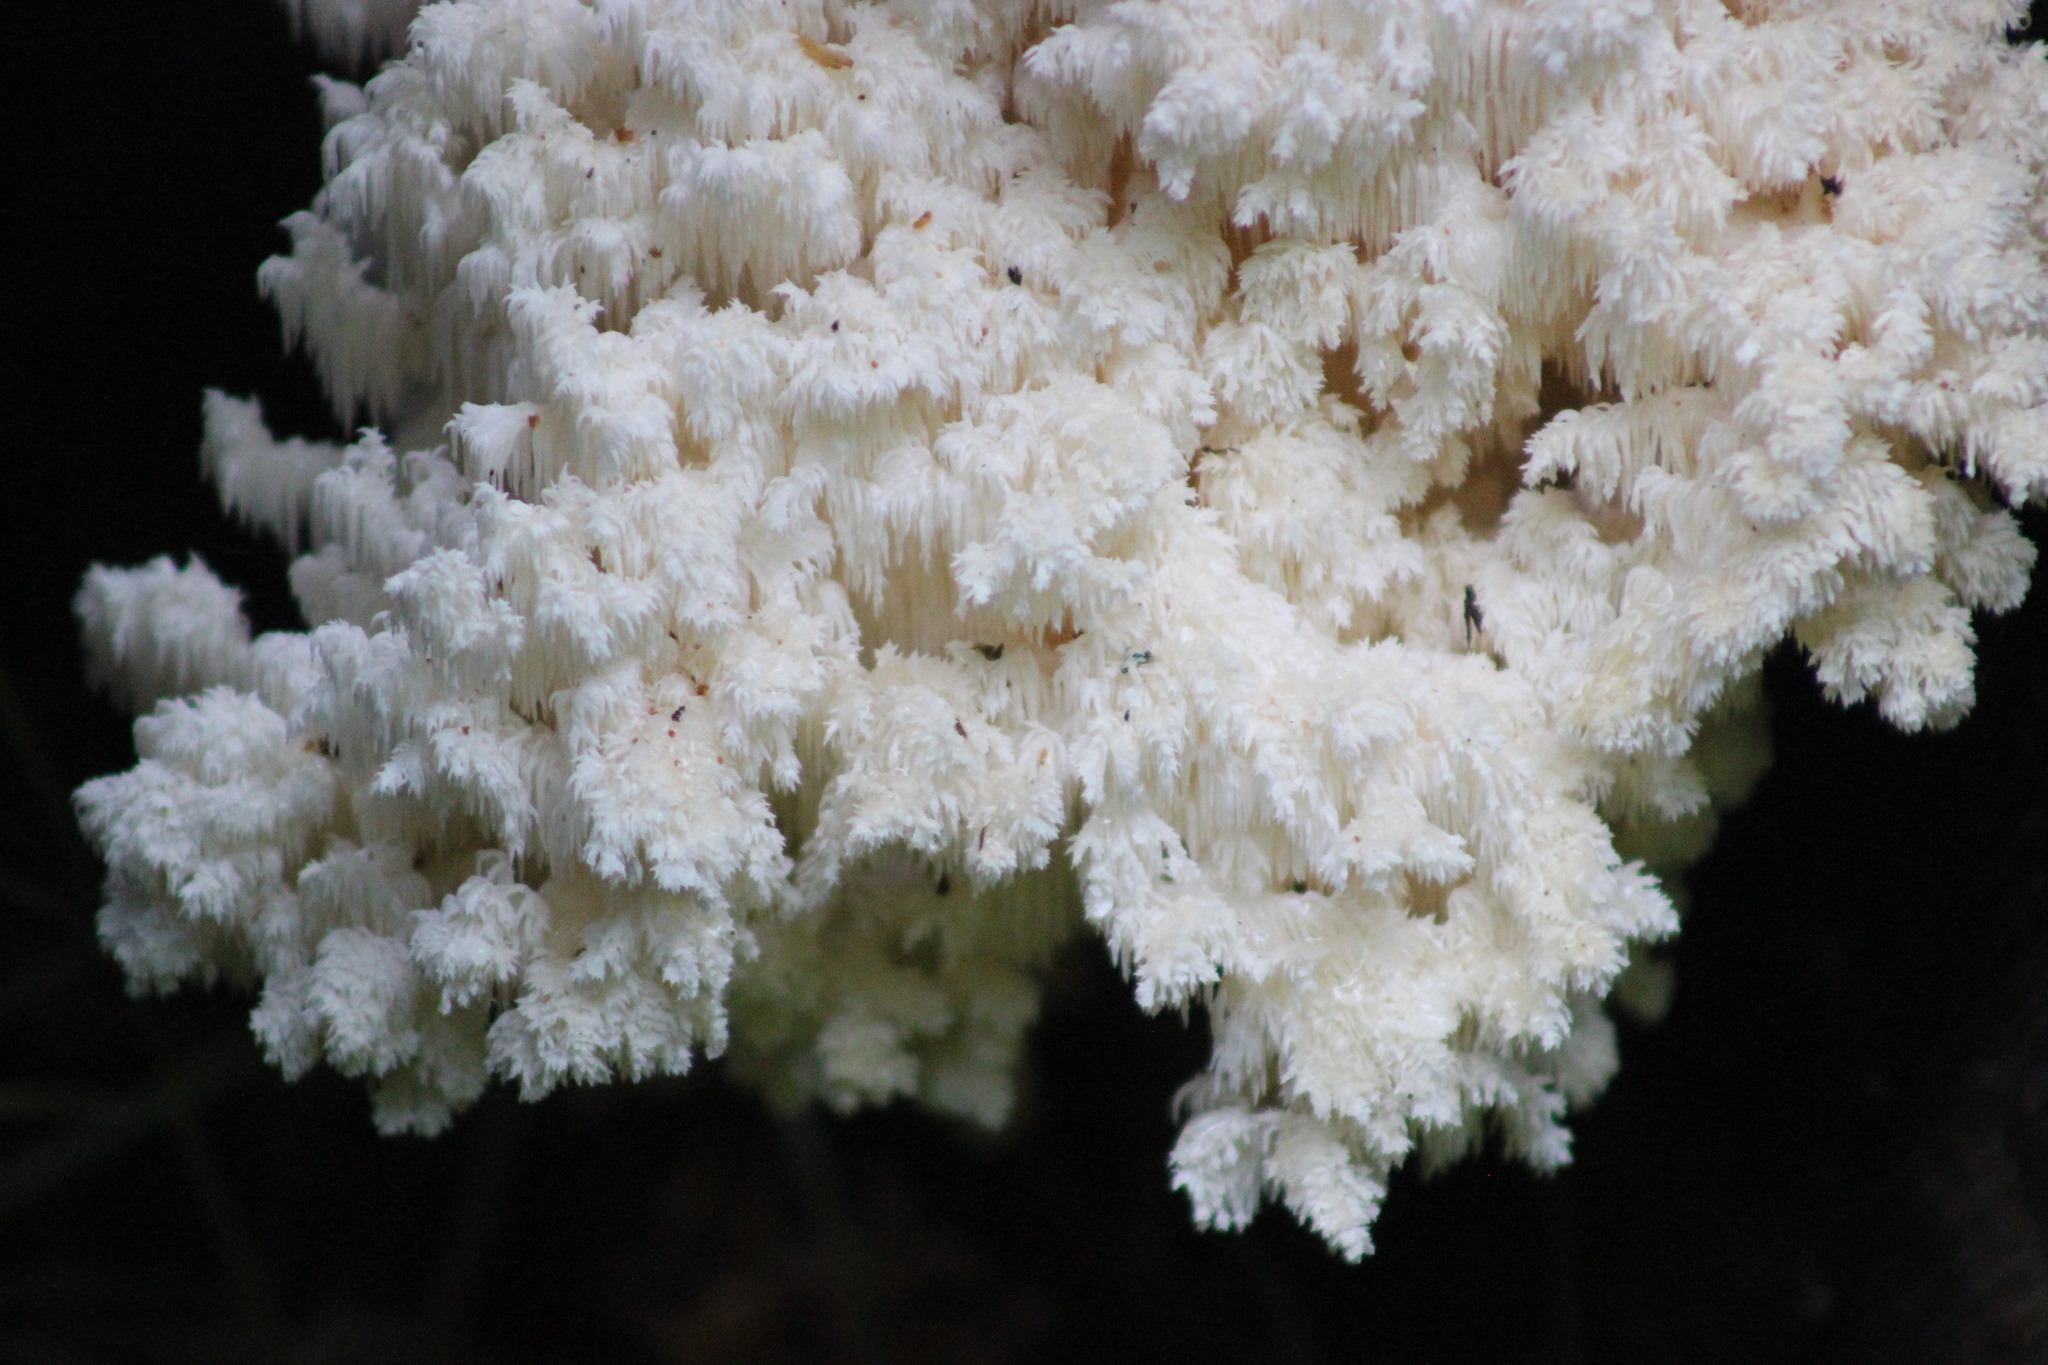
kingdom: Fungi
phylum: Basidiomycota
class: Agaricomycetes
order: Russulales
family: Hericiaceae
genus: Hericium
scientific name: Hericium coralloides
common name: Coral tooth
